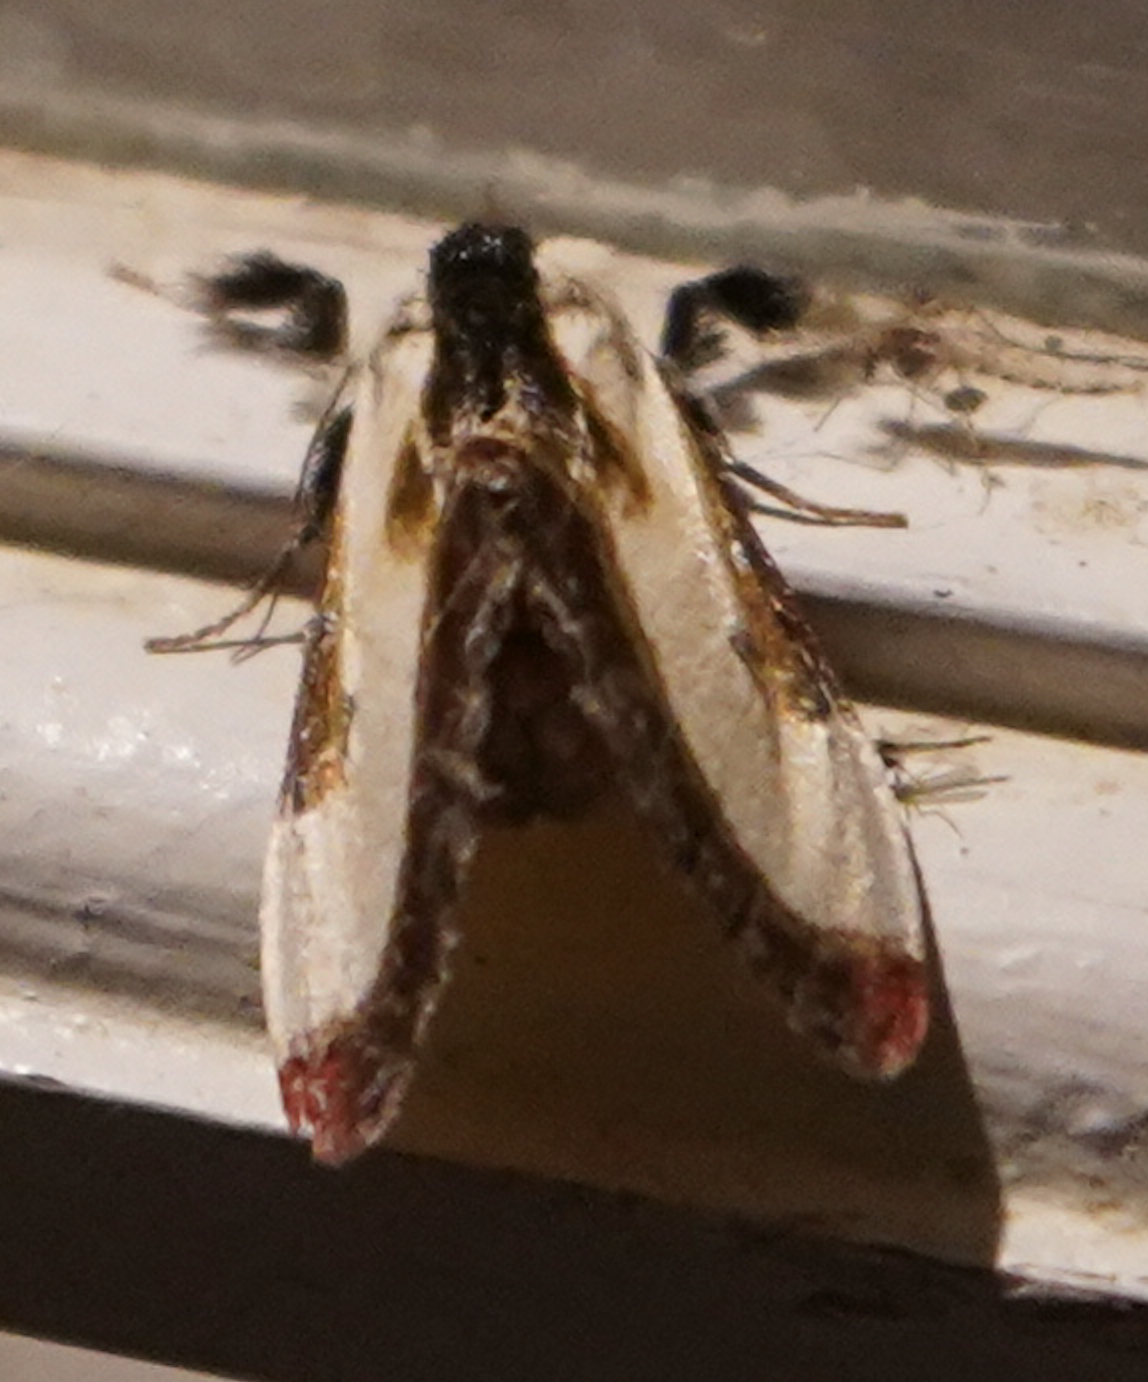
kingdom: Animalia
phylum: Arthropoda
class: Insecta
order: Lepidoptera
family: Noctuidae
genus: Eudryas
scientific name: Eudryas grata
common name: Beautiful wood-nymph
